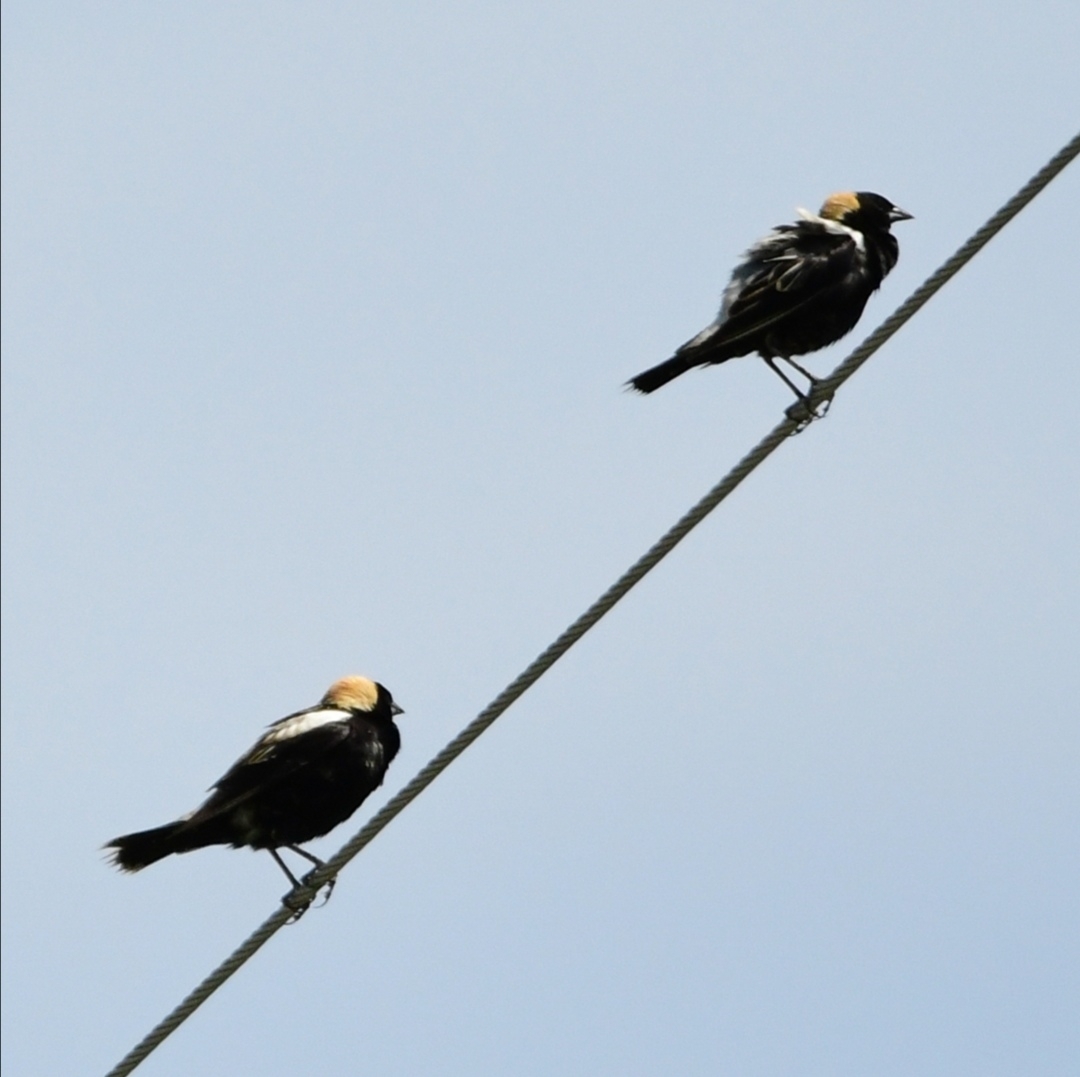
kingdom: Animalia
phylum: Chordata
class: Aves
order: Passeriformes
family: Icteridae
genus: Dolichonyx
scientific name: Dolichonyx oryzivorus
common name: Bobolink
